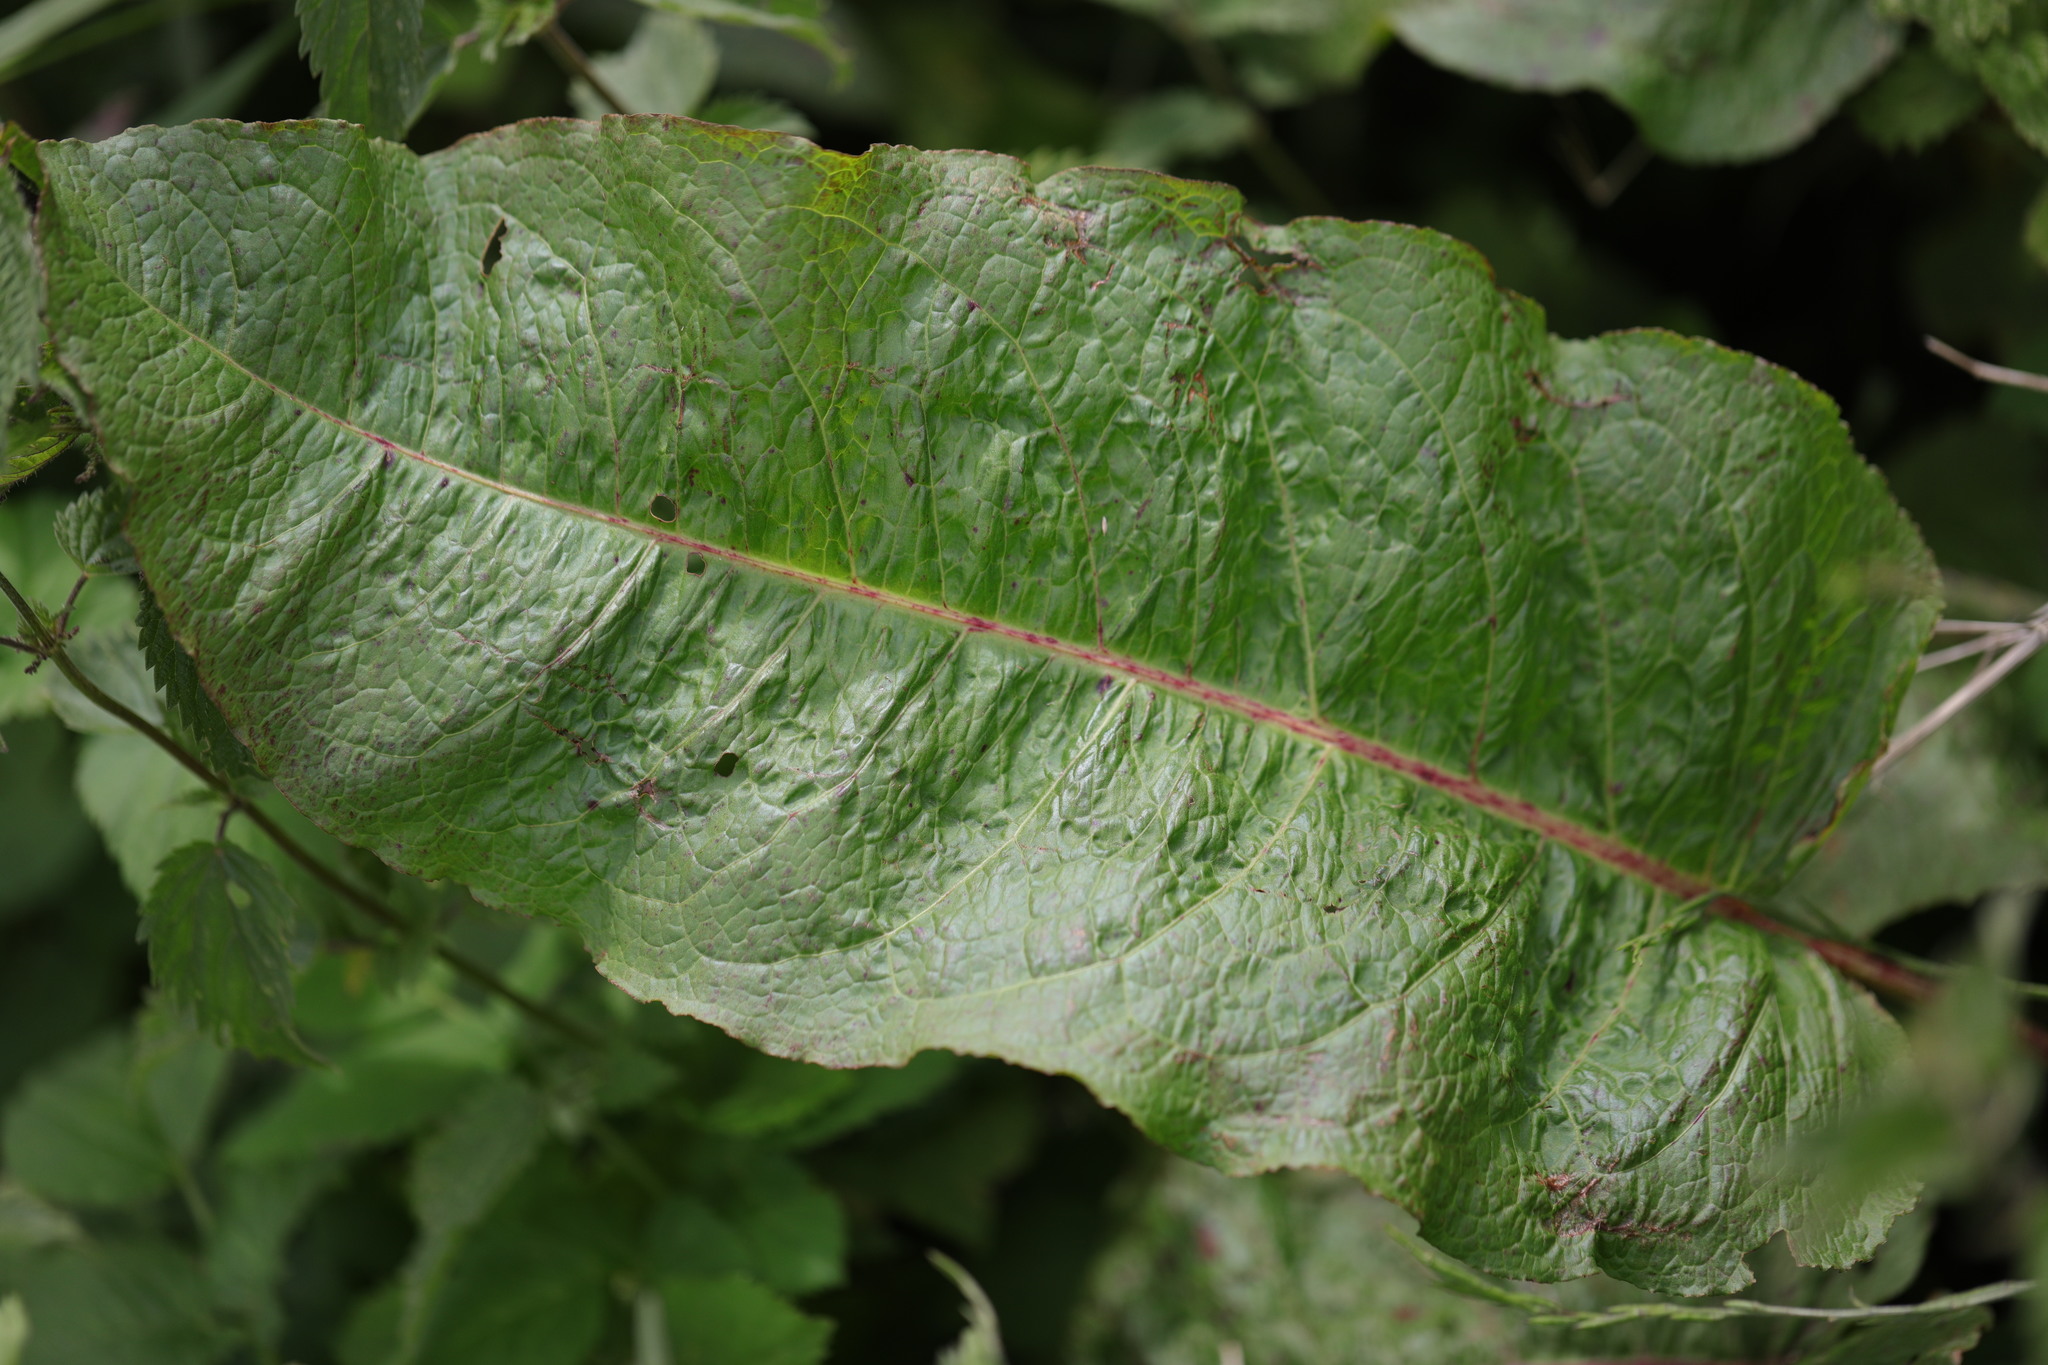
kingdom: Plantae
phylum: Tracheophyta
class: Magnoliopsida
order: Caryophyllales
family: Polygonaceae
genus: Rumex
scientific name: Rumex obtusifolius
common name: Bitter dock
